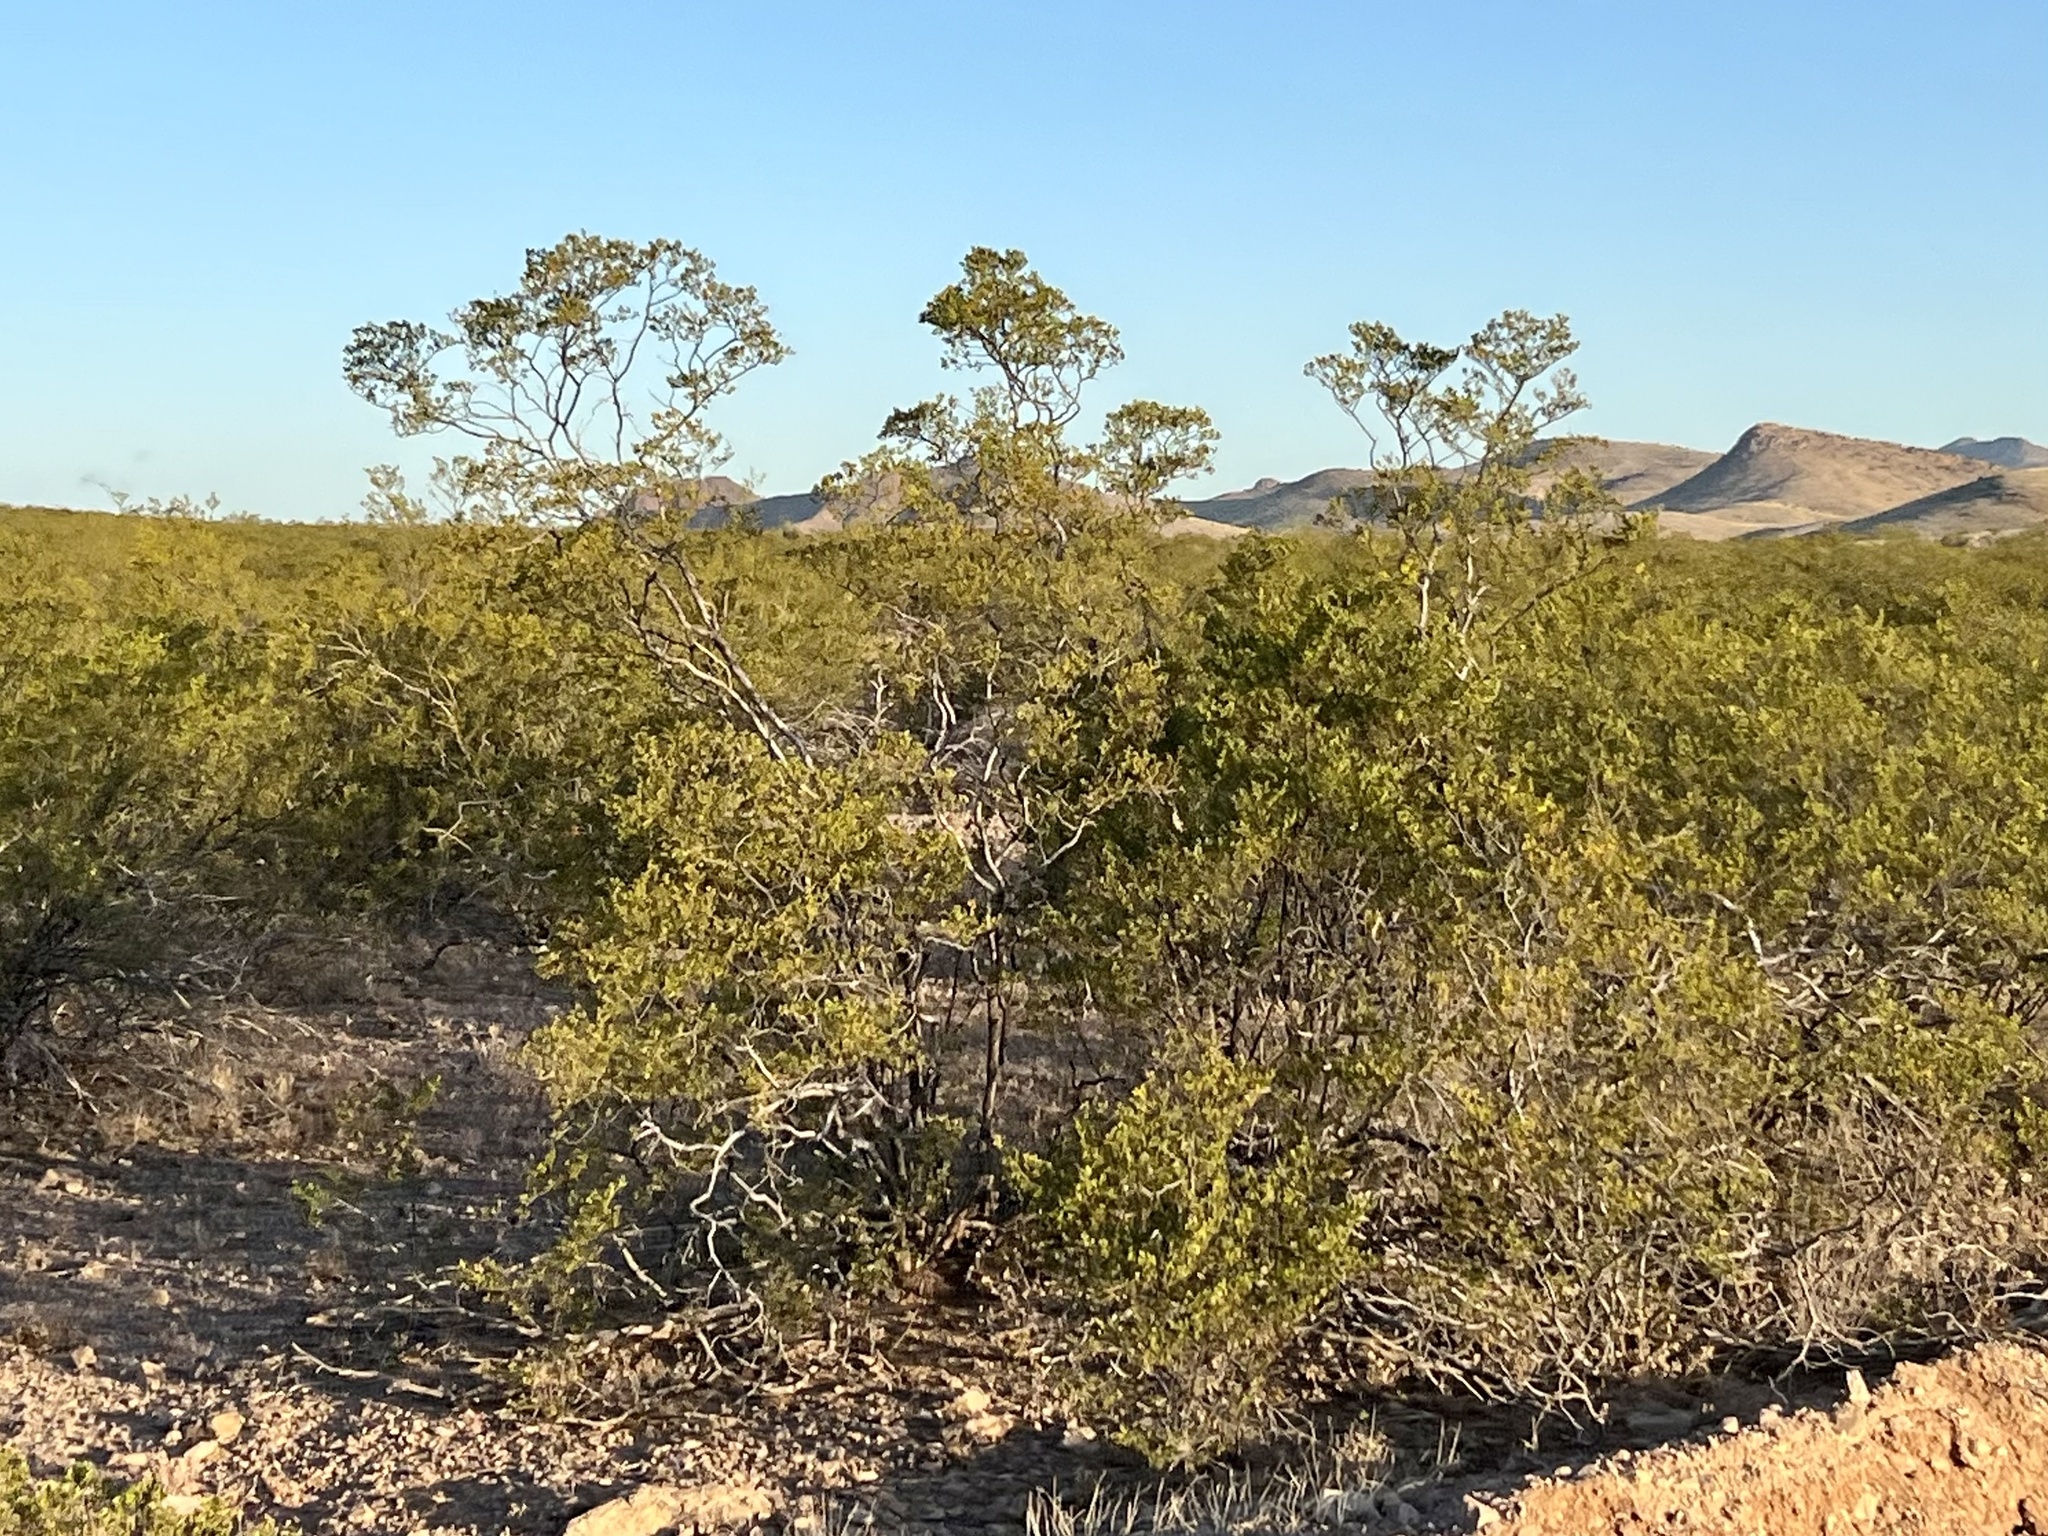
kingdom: Plantae
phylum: Tracheophyta
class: Magnoliopsida
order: Zygophyllales
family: Zygophyllaceae
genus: Larrea
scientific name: Larrea tridentata
